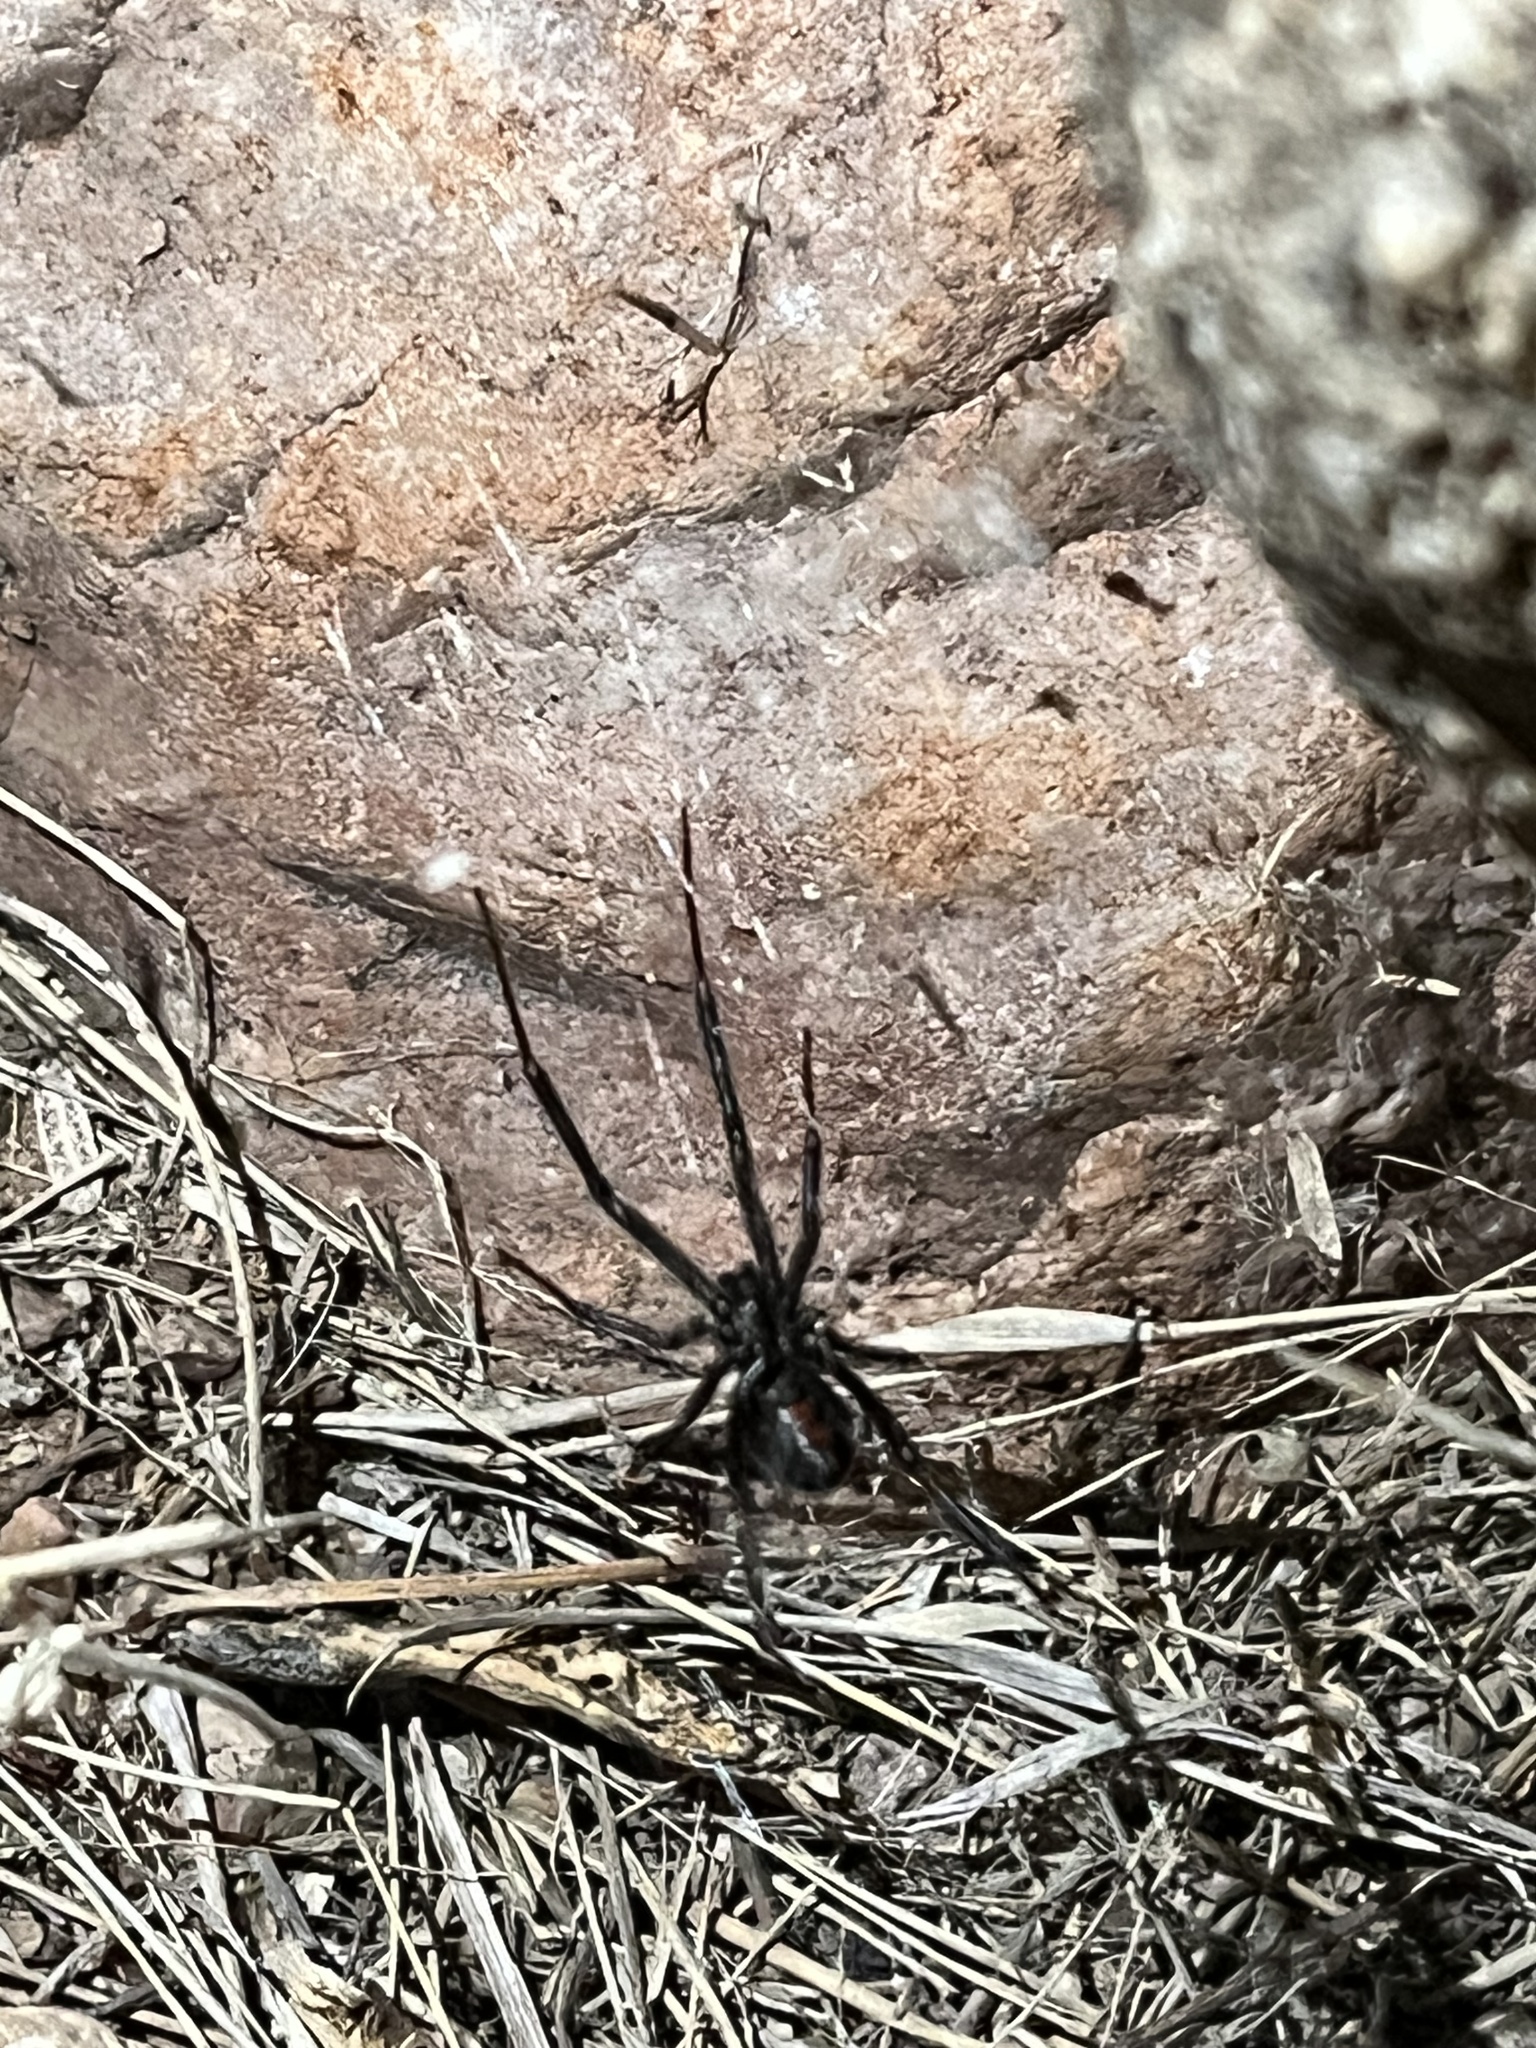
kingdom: Animalia
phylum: Arthropoda
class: Arachnida
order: Araneae
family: Theridiidae
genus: Latrodectus
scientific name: Latrodectus hesperus
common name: Western black widow
